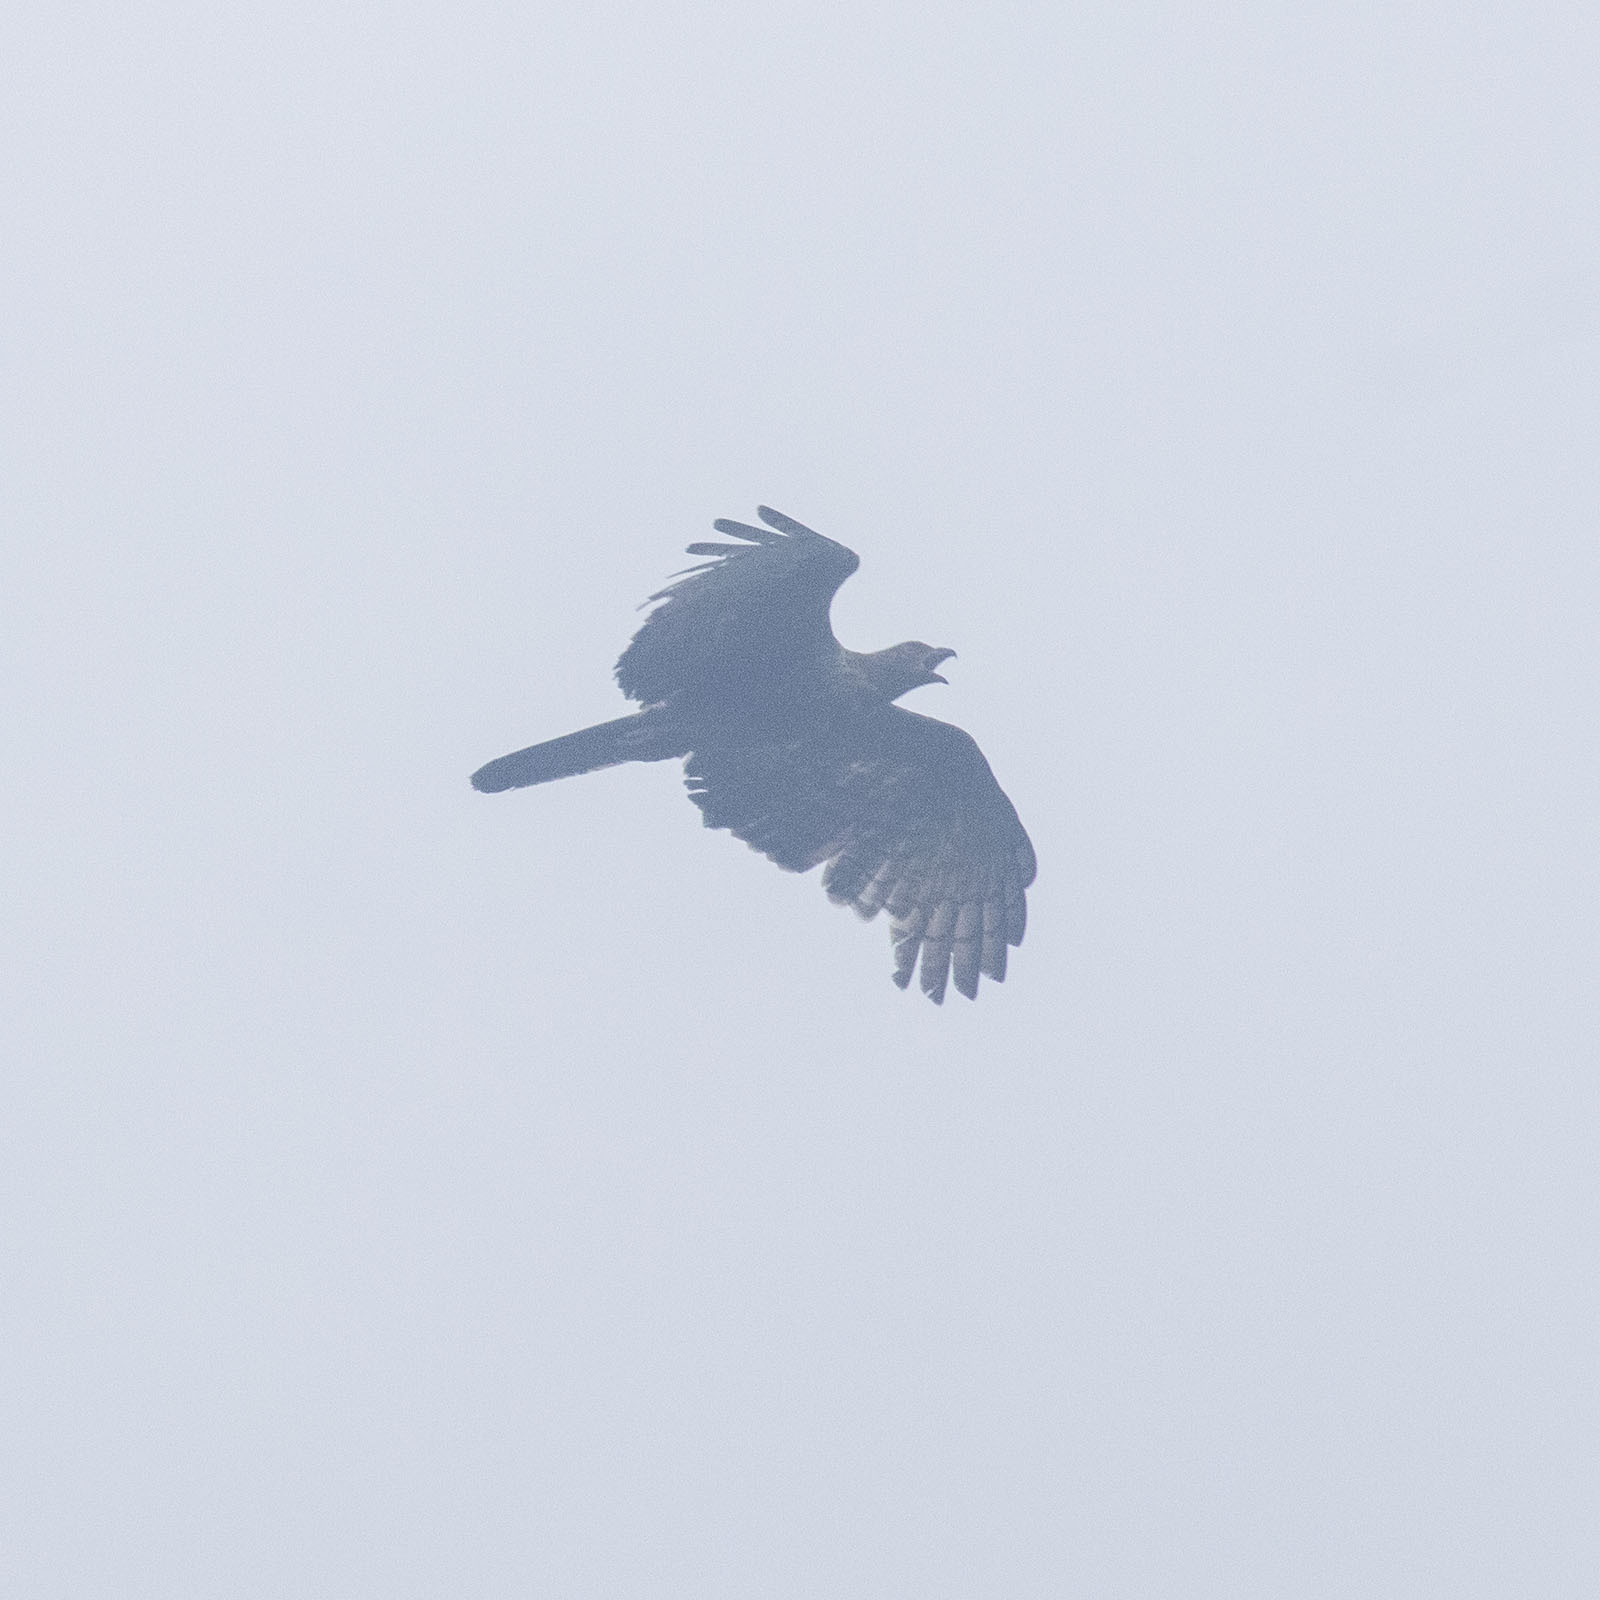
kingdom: Animalia
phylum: Chordata
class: Aves
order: Accipitriformes
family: Accipitridae
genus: Pernis
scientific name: Pernis ptilorhynchus
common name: Crested honey buzzard
